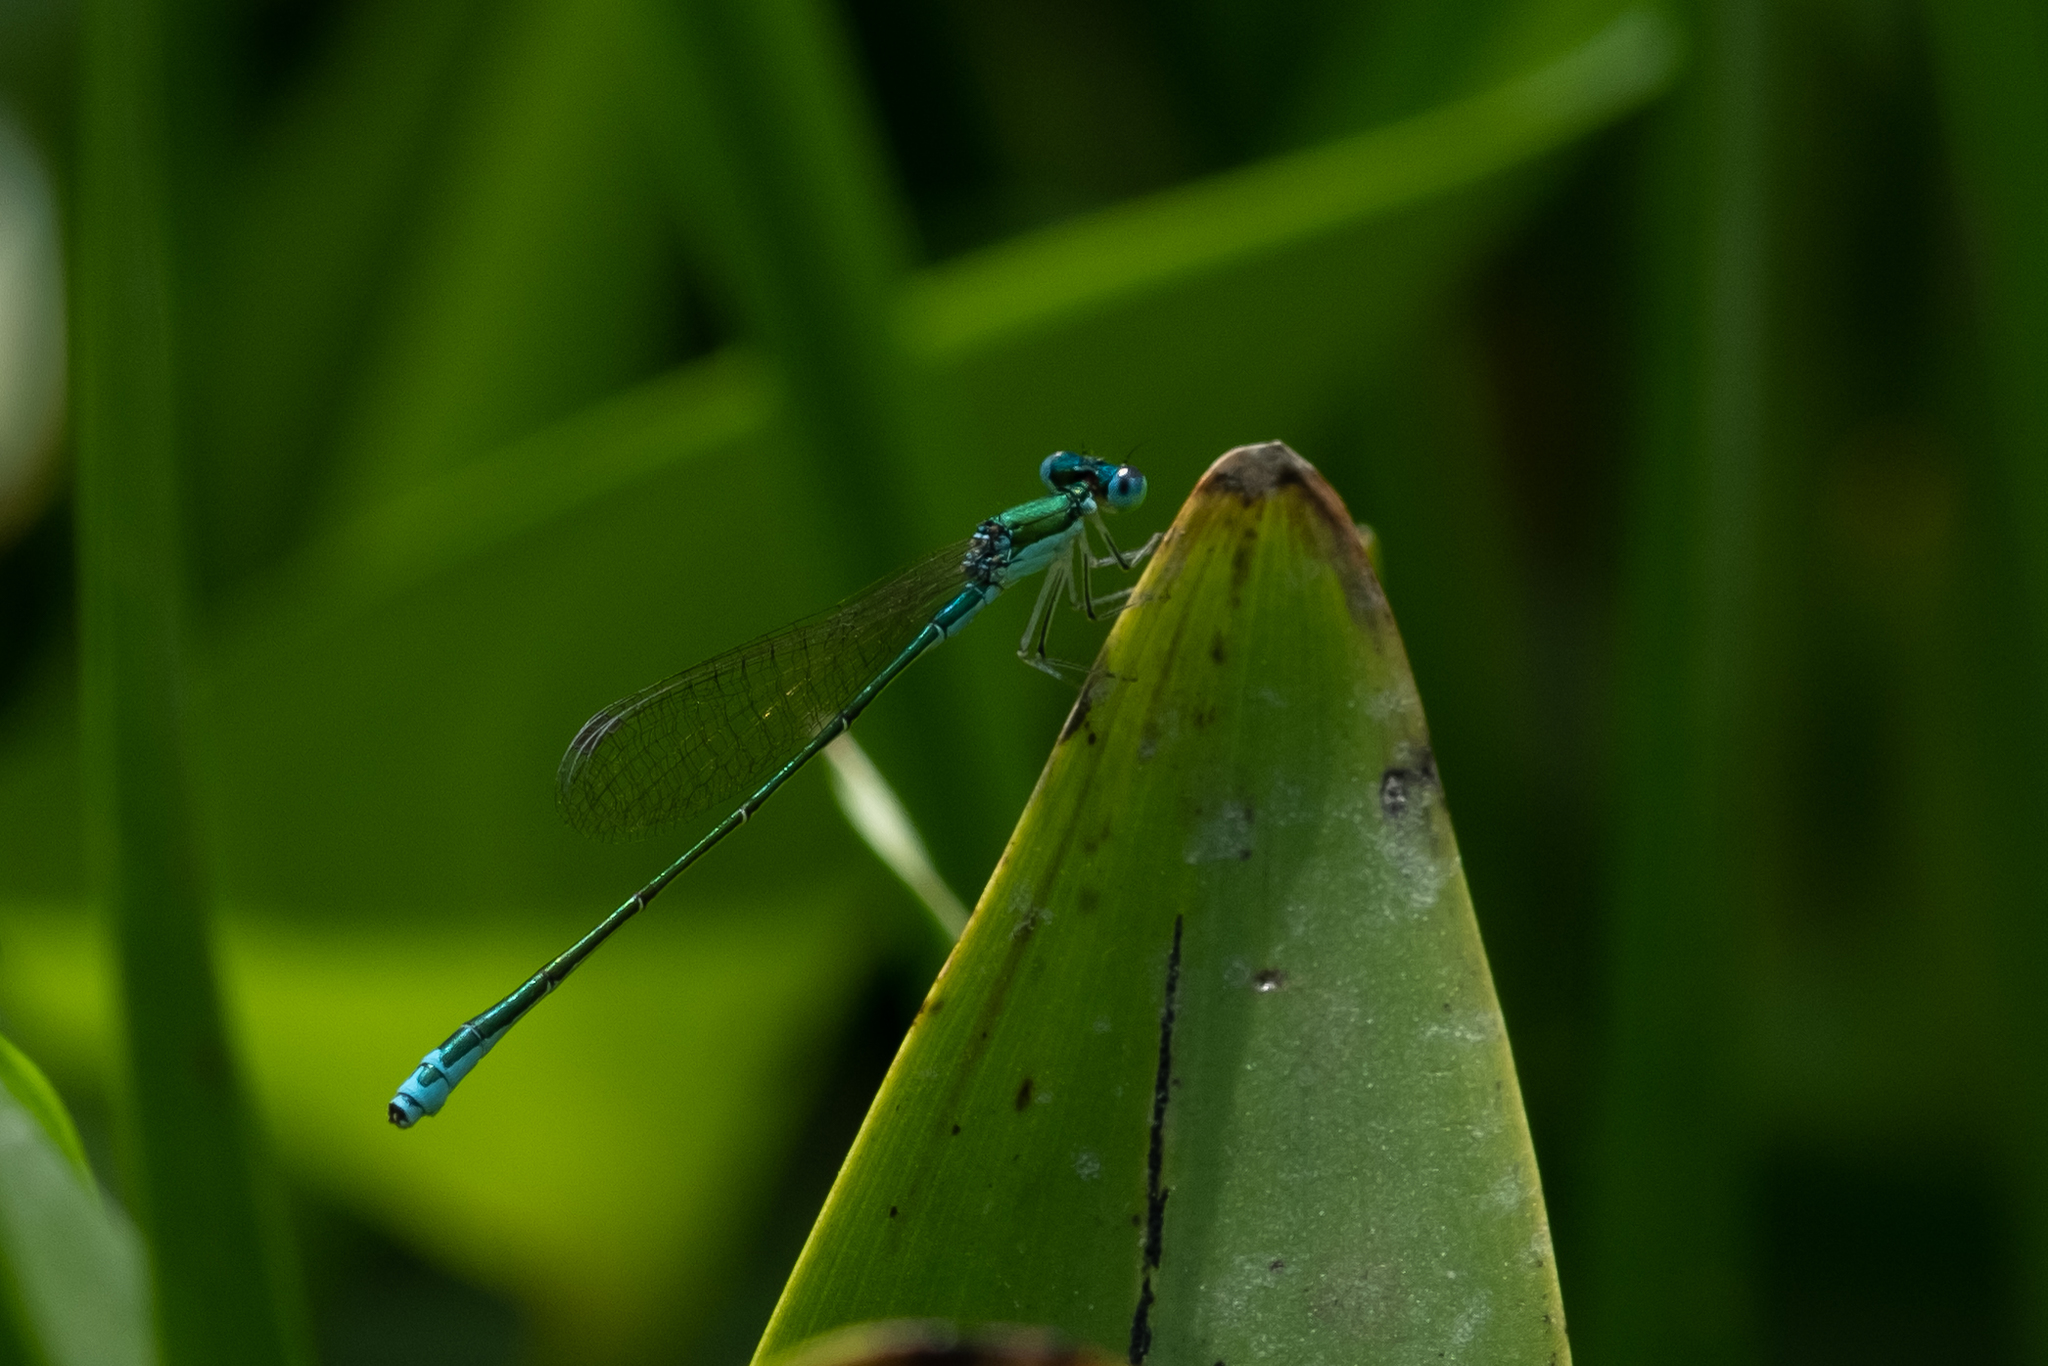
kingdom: Animalia
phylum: Arthropoda
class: Insecta
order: Odonata
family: Coenagrionidae
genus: Nehalennia
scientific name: Nehalennia irene
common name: Sedge sprite
